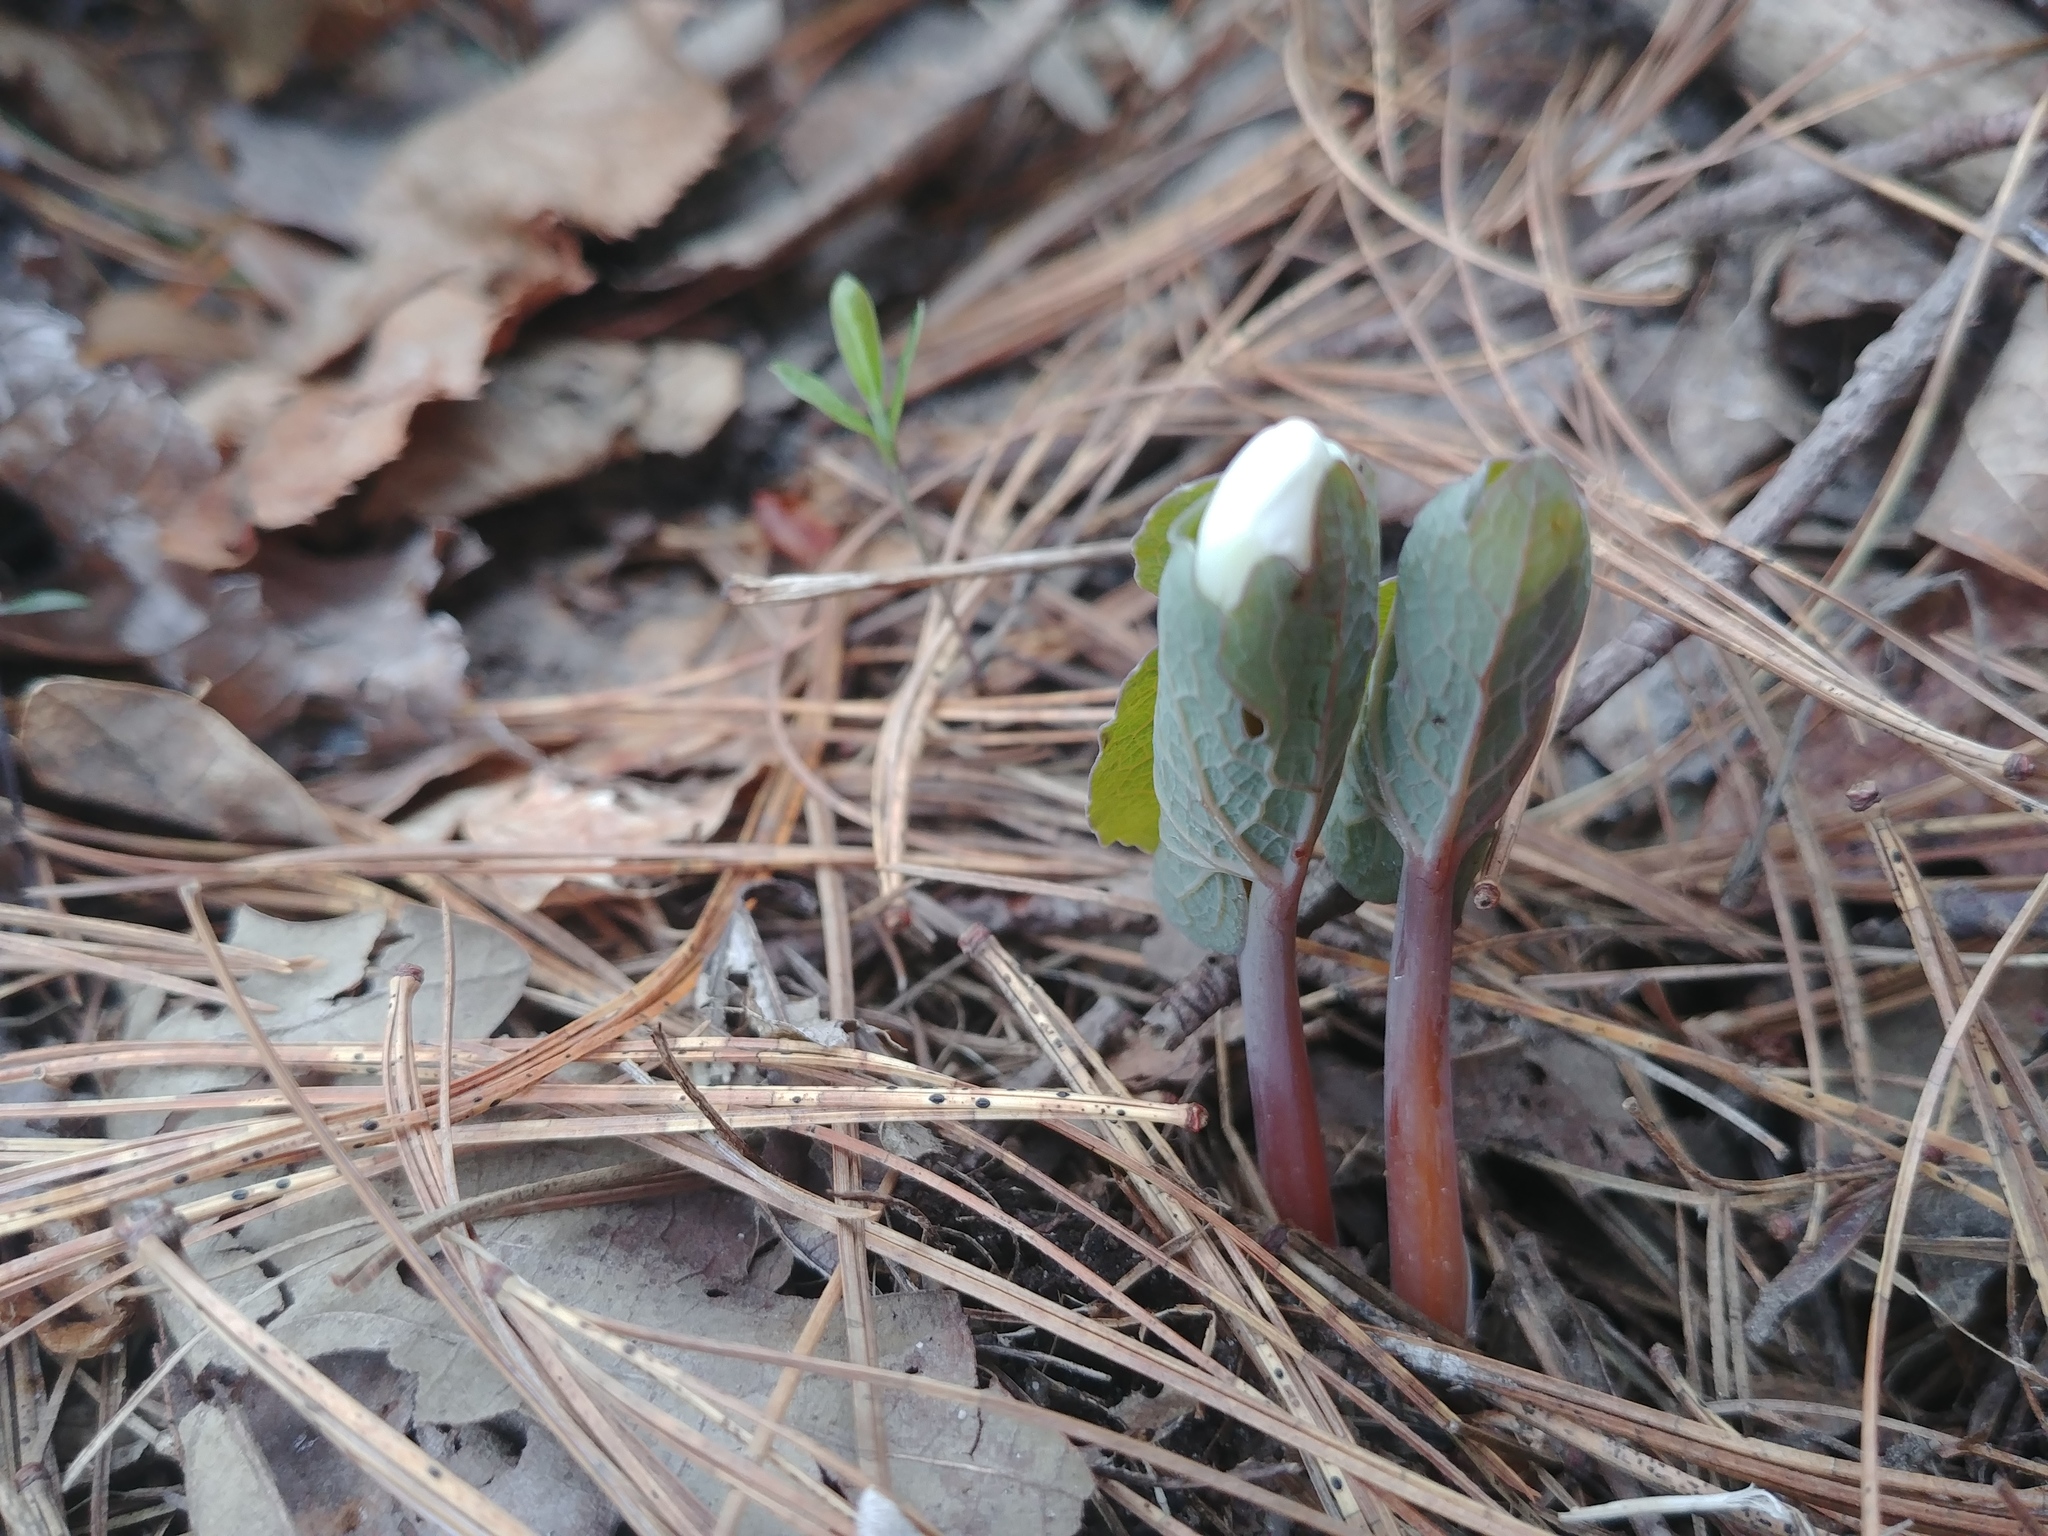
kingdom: Plantae
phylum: Tracheophyta
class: Magnoliopsida
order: Ranunculales
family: Papaveraceae
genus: Sanguinaria
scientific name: Sanguinaria canadensis
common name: Bloodroot
